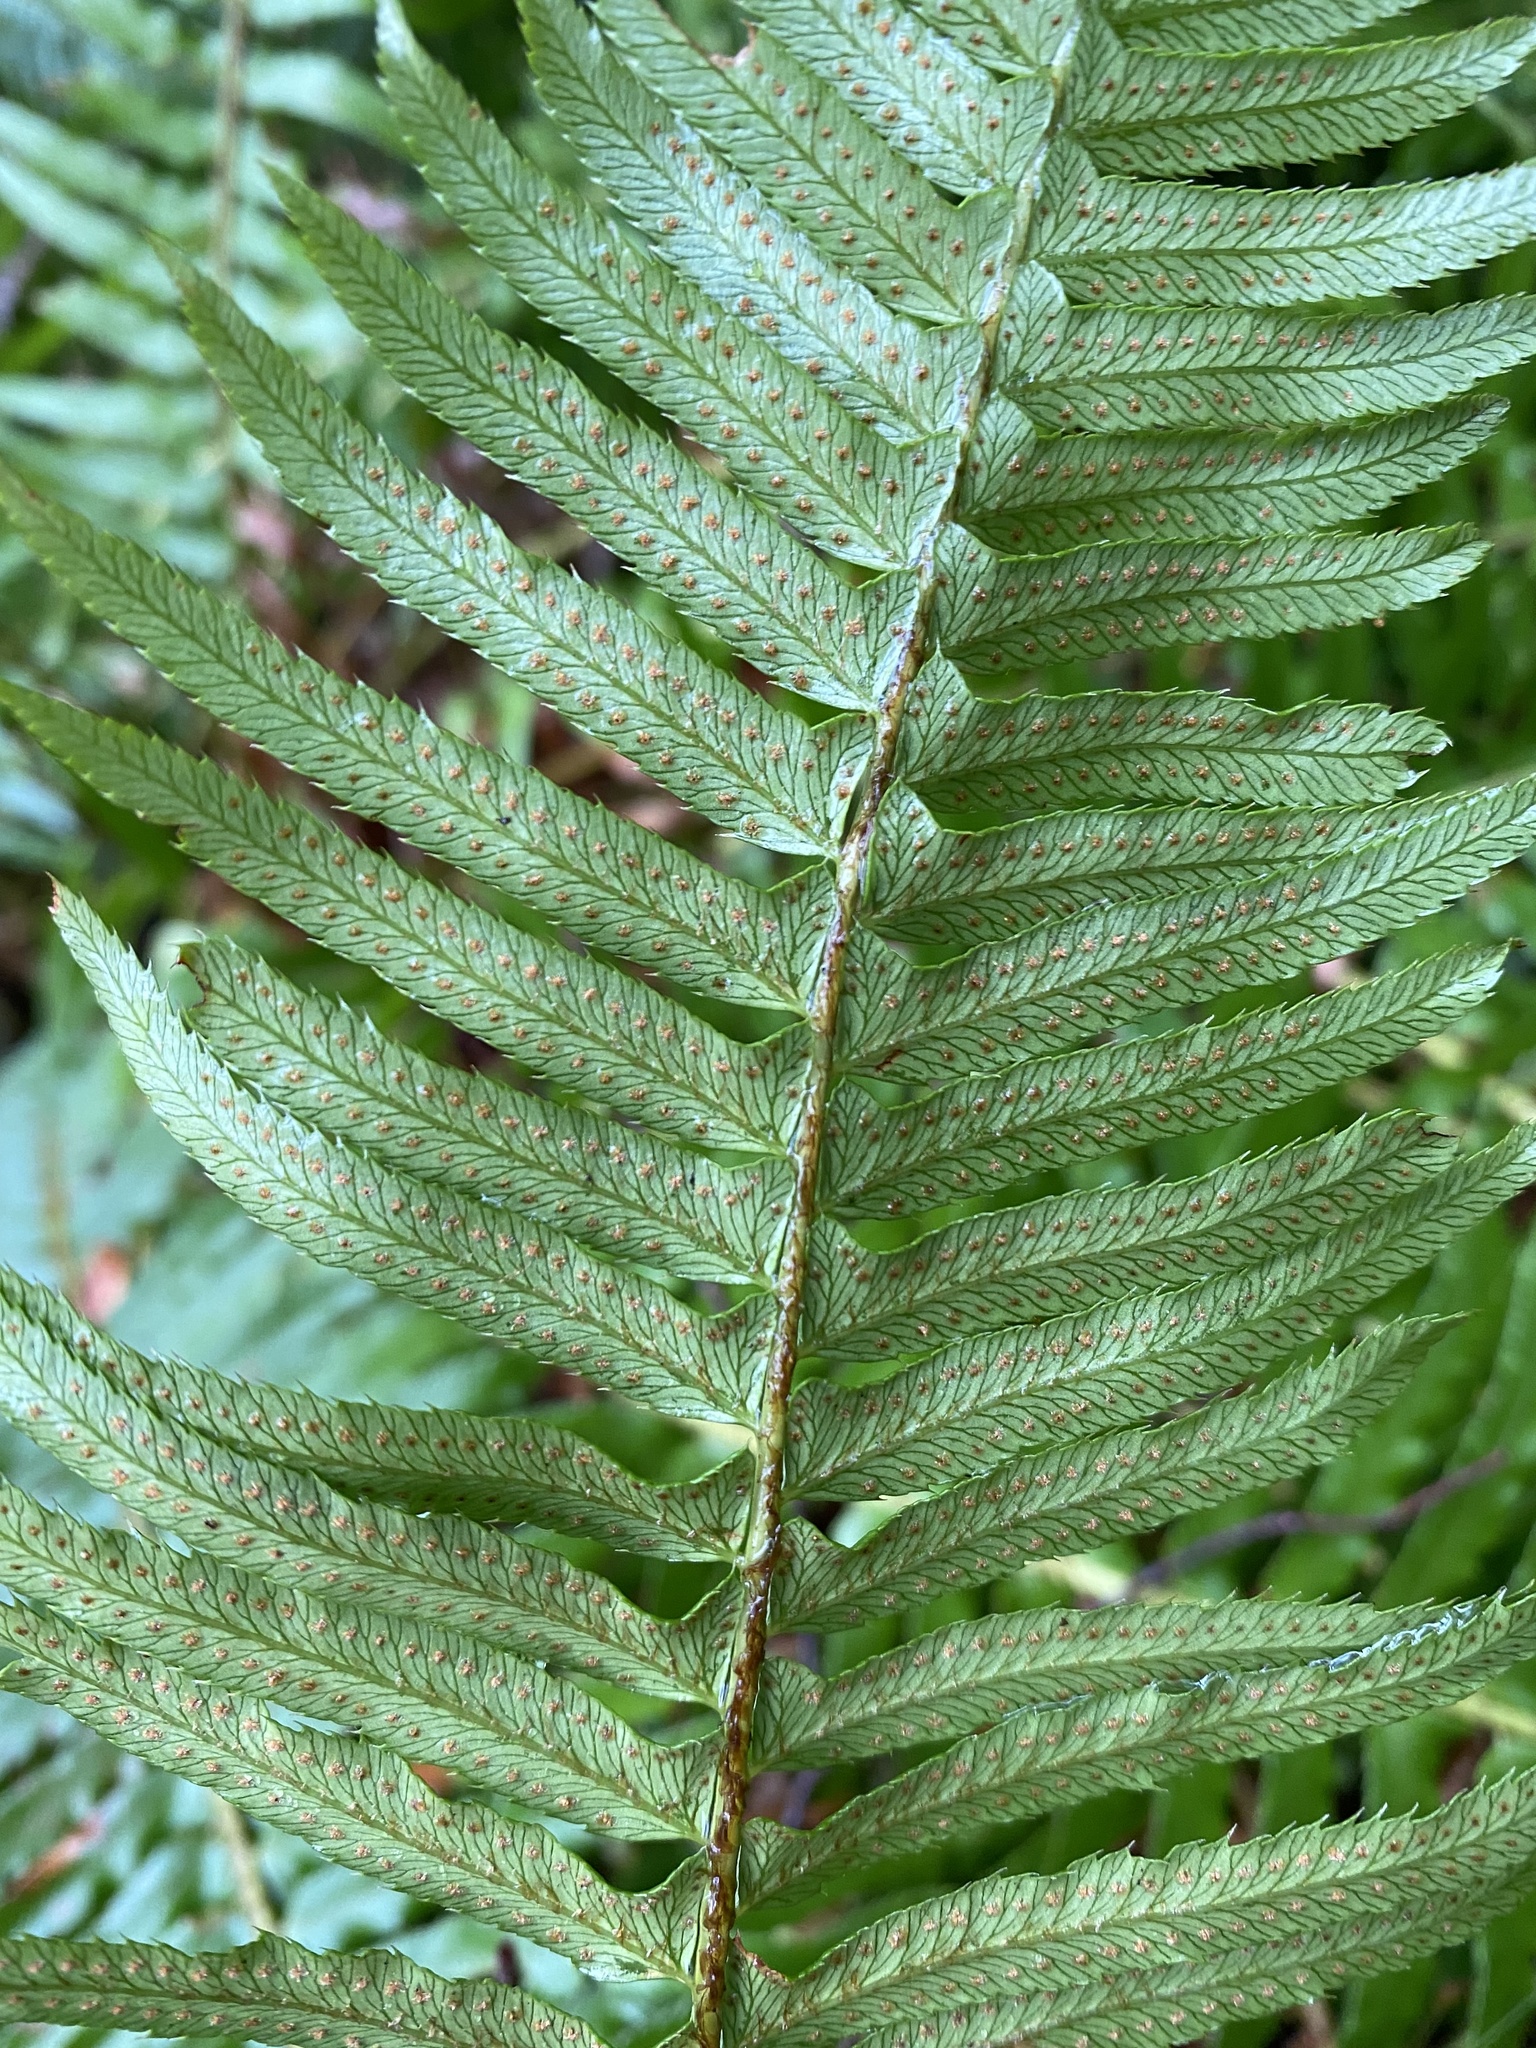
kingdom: Plantae
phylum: Tracheophyta
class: Polypodiopsida
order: Polypodiales
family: Dryopteridaceae
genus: Polystichum
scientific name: Polystichum munitum
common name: Western sword-fern
